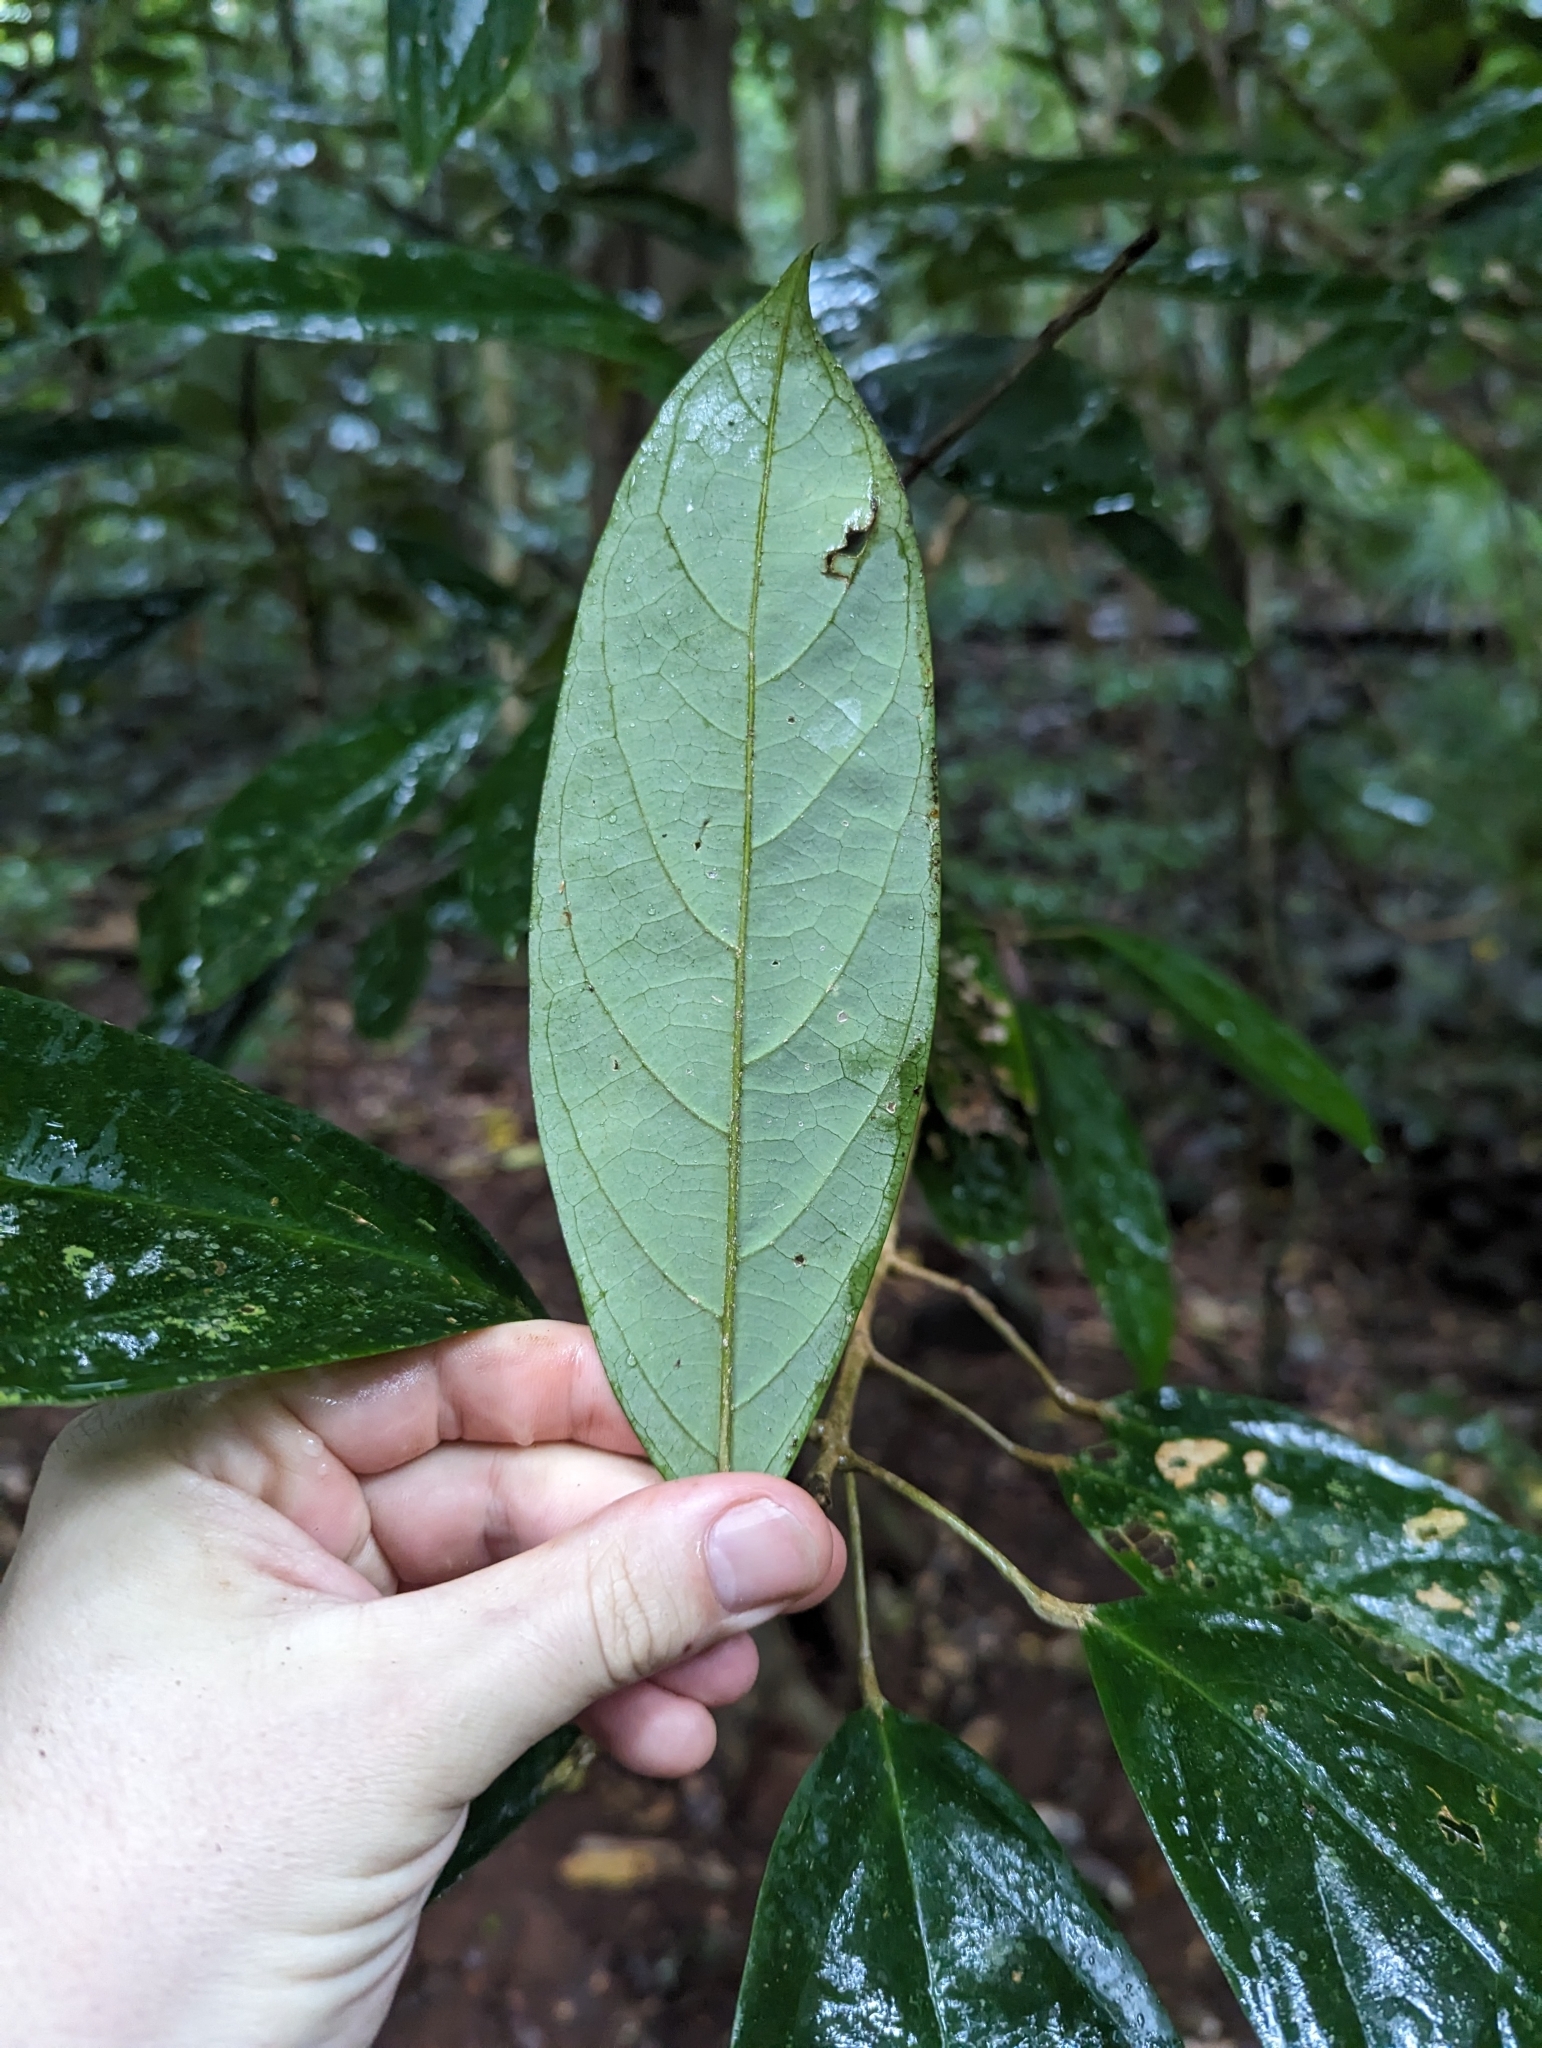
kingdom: Plantae
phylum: Tracheophyta
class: Magnoliopsida
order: Malpighiales
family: Achariaceae
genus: Ryparosa
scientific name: Ryparosa kurrangii
